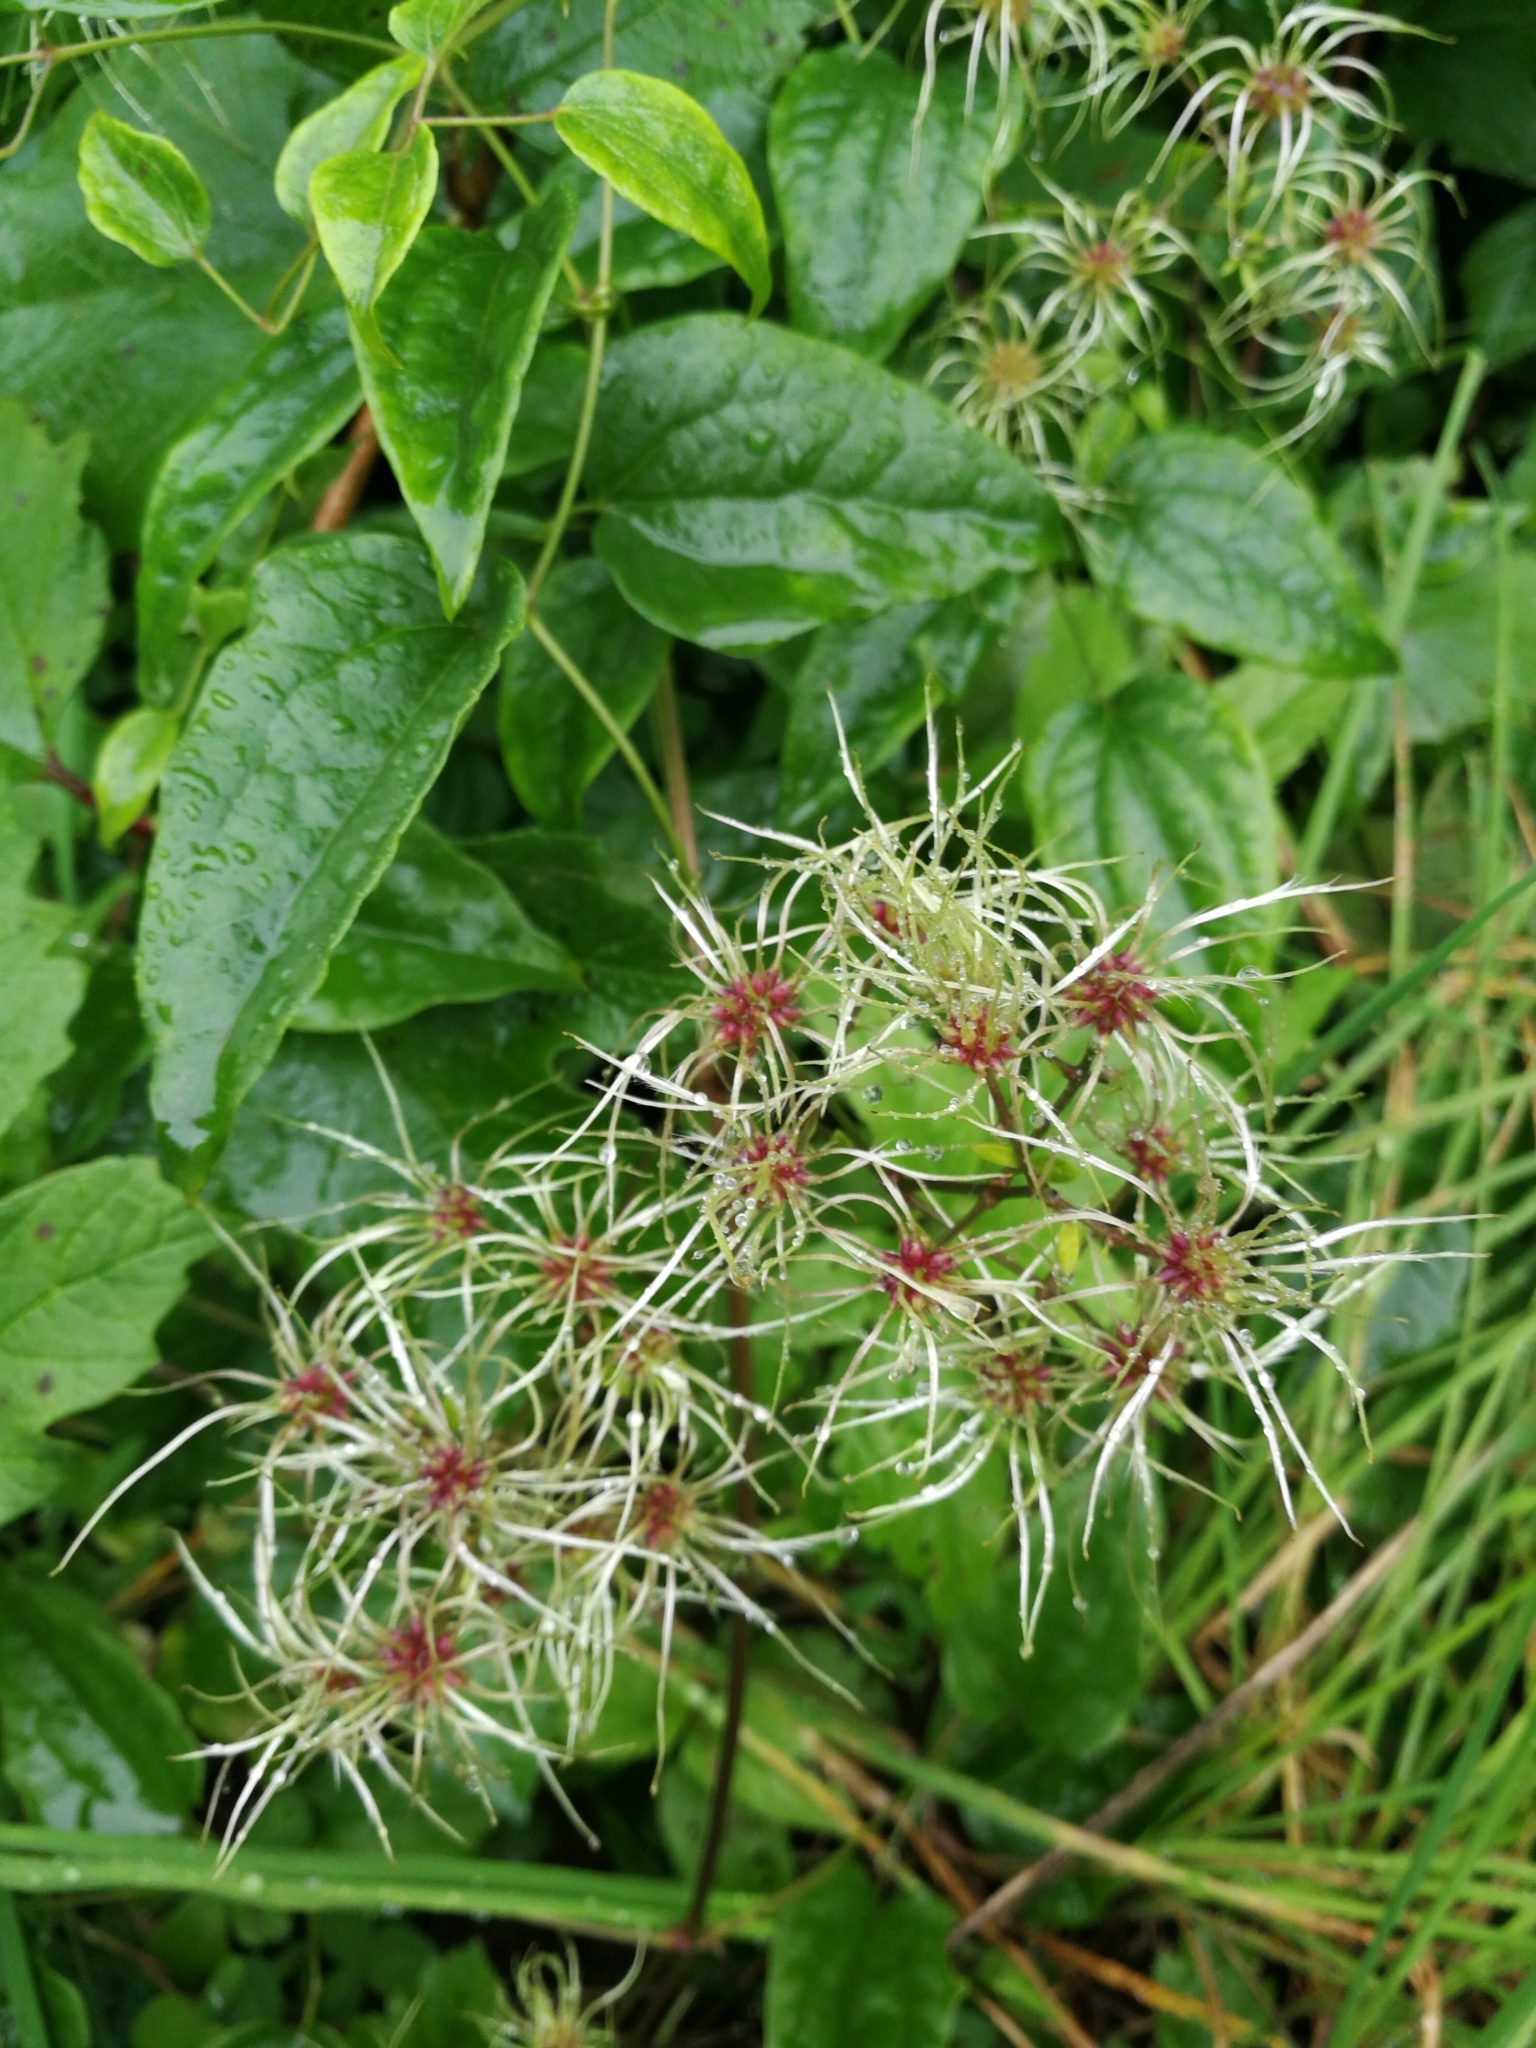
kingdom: Plantae
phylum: Tracheophyta
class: Magnoliopsida
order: Ranunculales
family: Ranunculaceae
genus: Clematis
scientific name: Clematis vitalba
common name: Evergreen clematis
